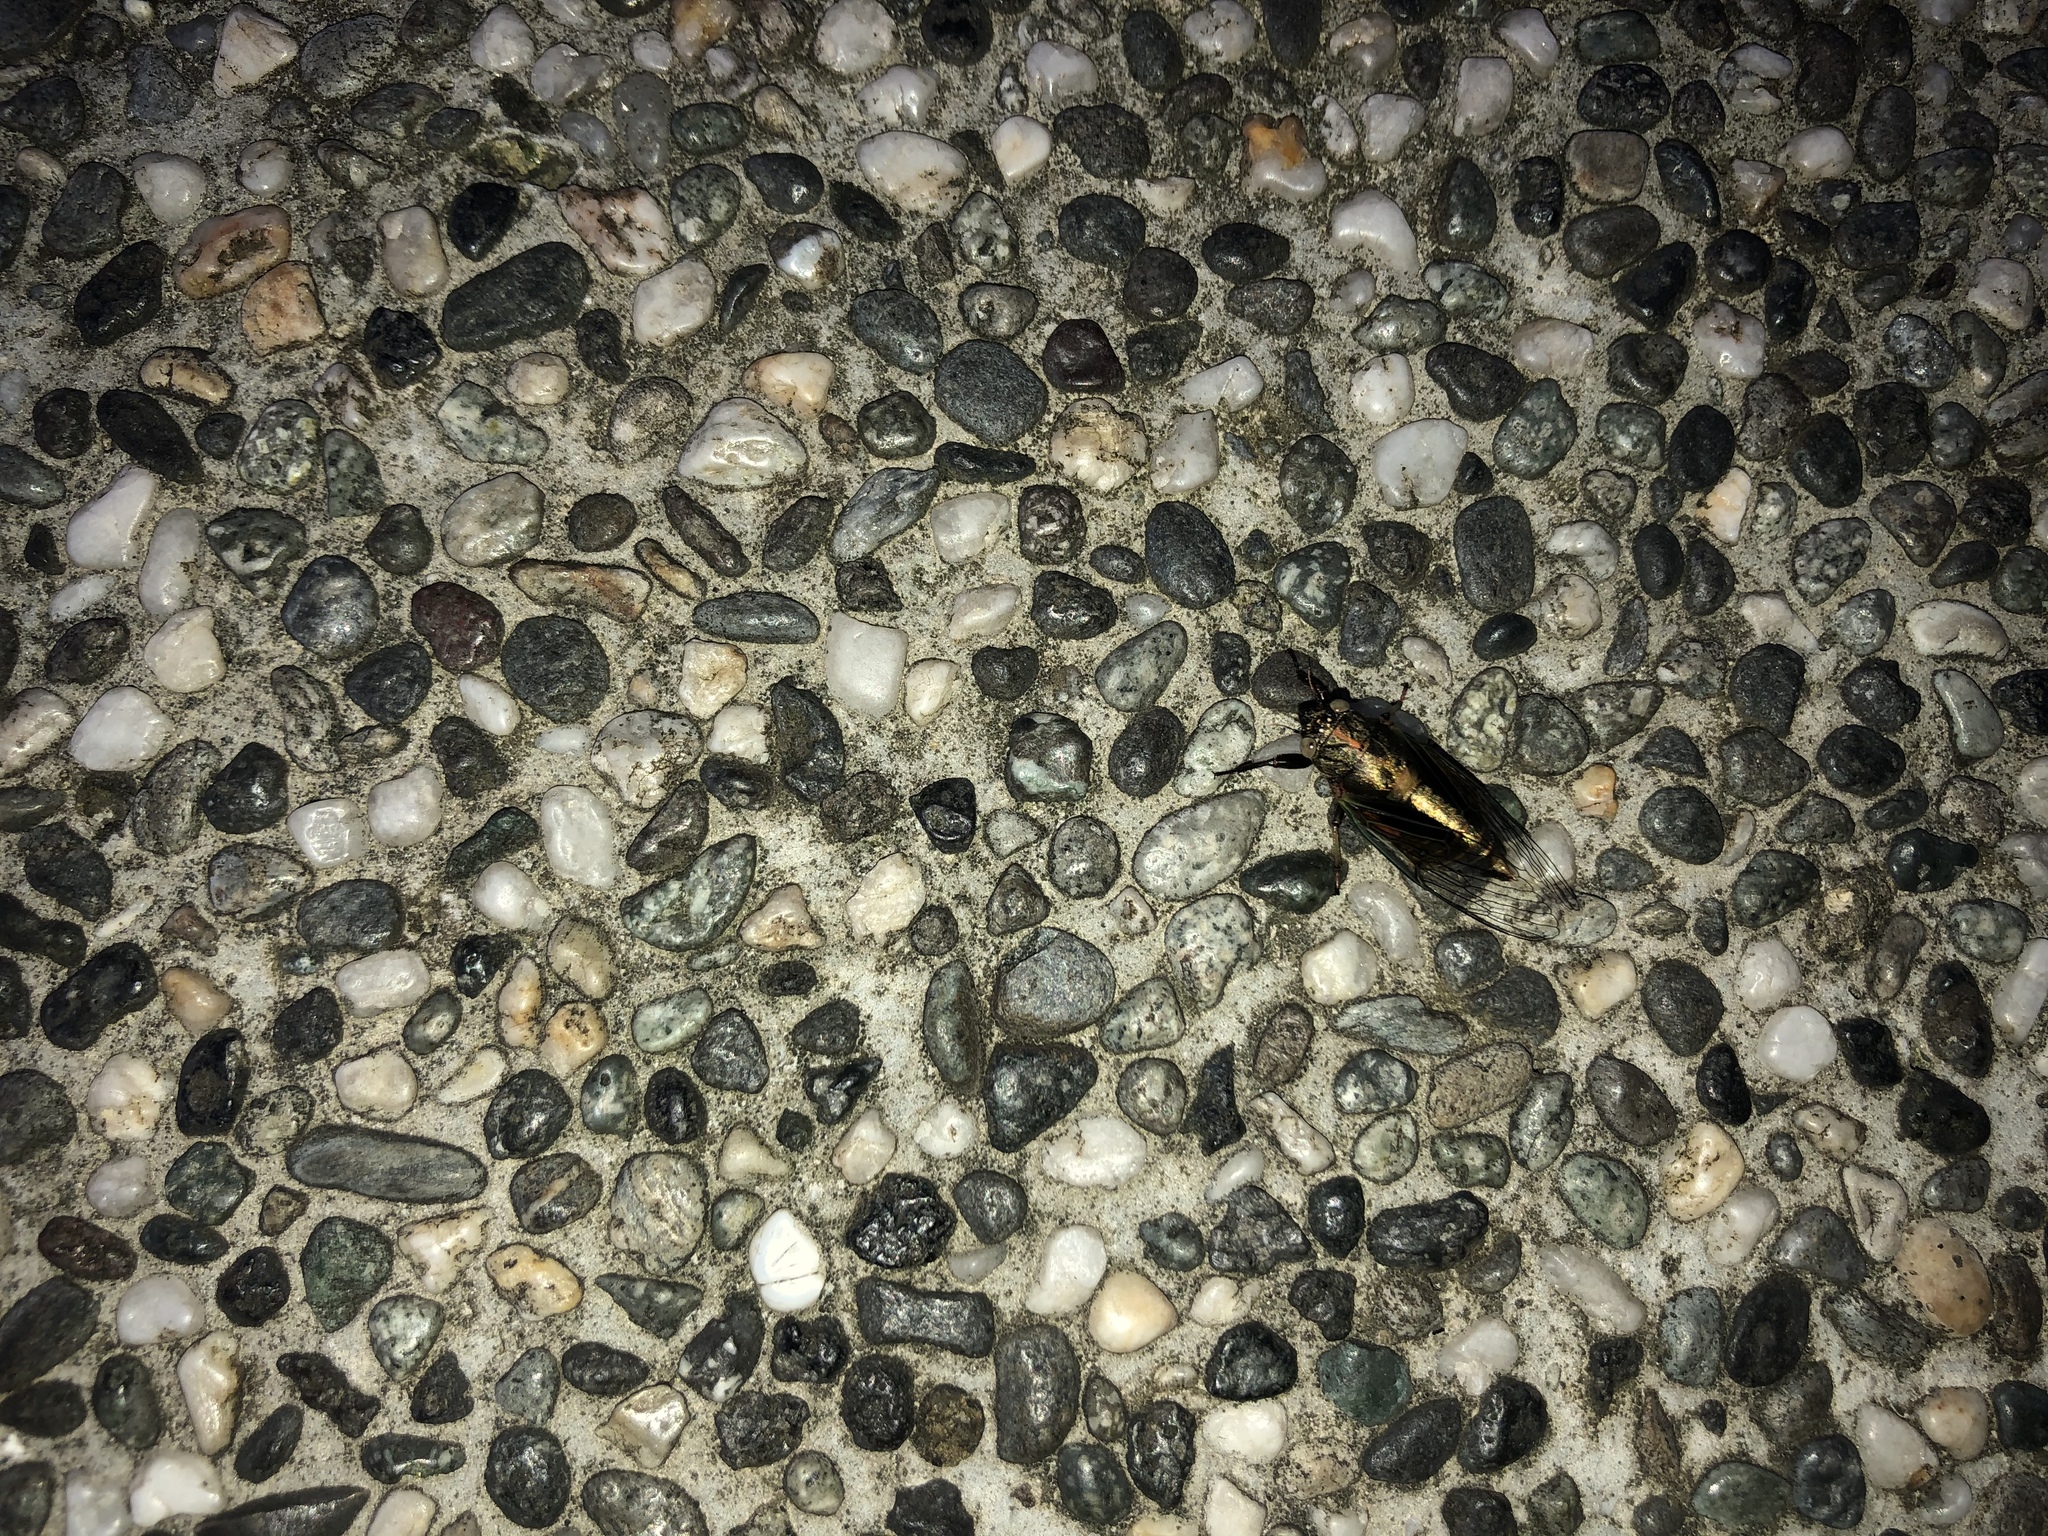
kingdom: Animalia
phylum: Arthropoda
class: Insecta
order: Hemiptera
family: Cicadidae
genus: Mogannia
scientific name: Mogannia formosana
